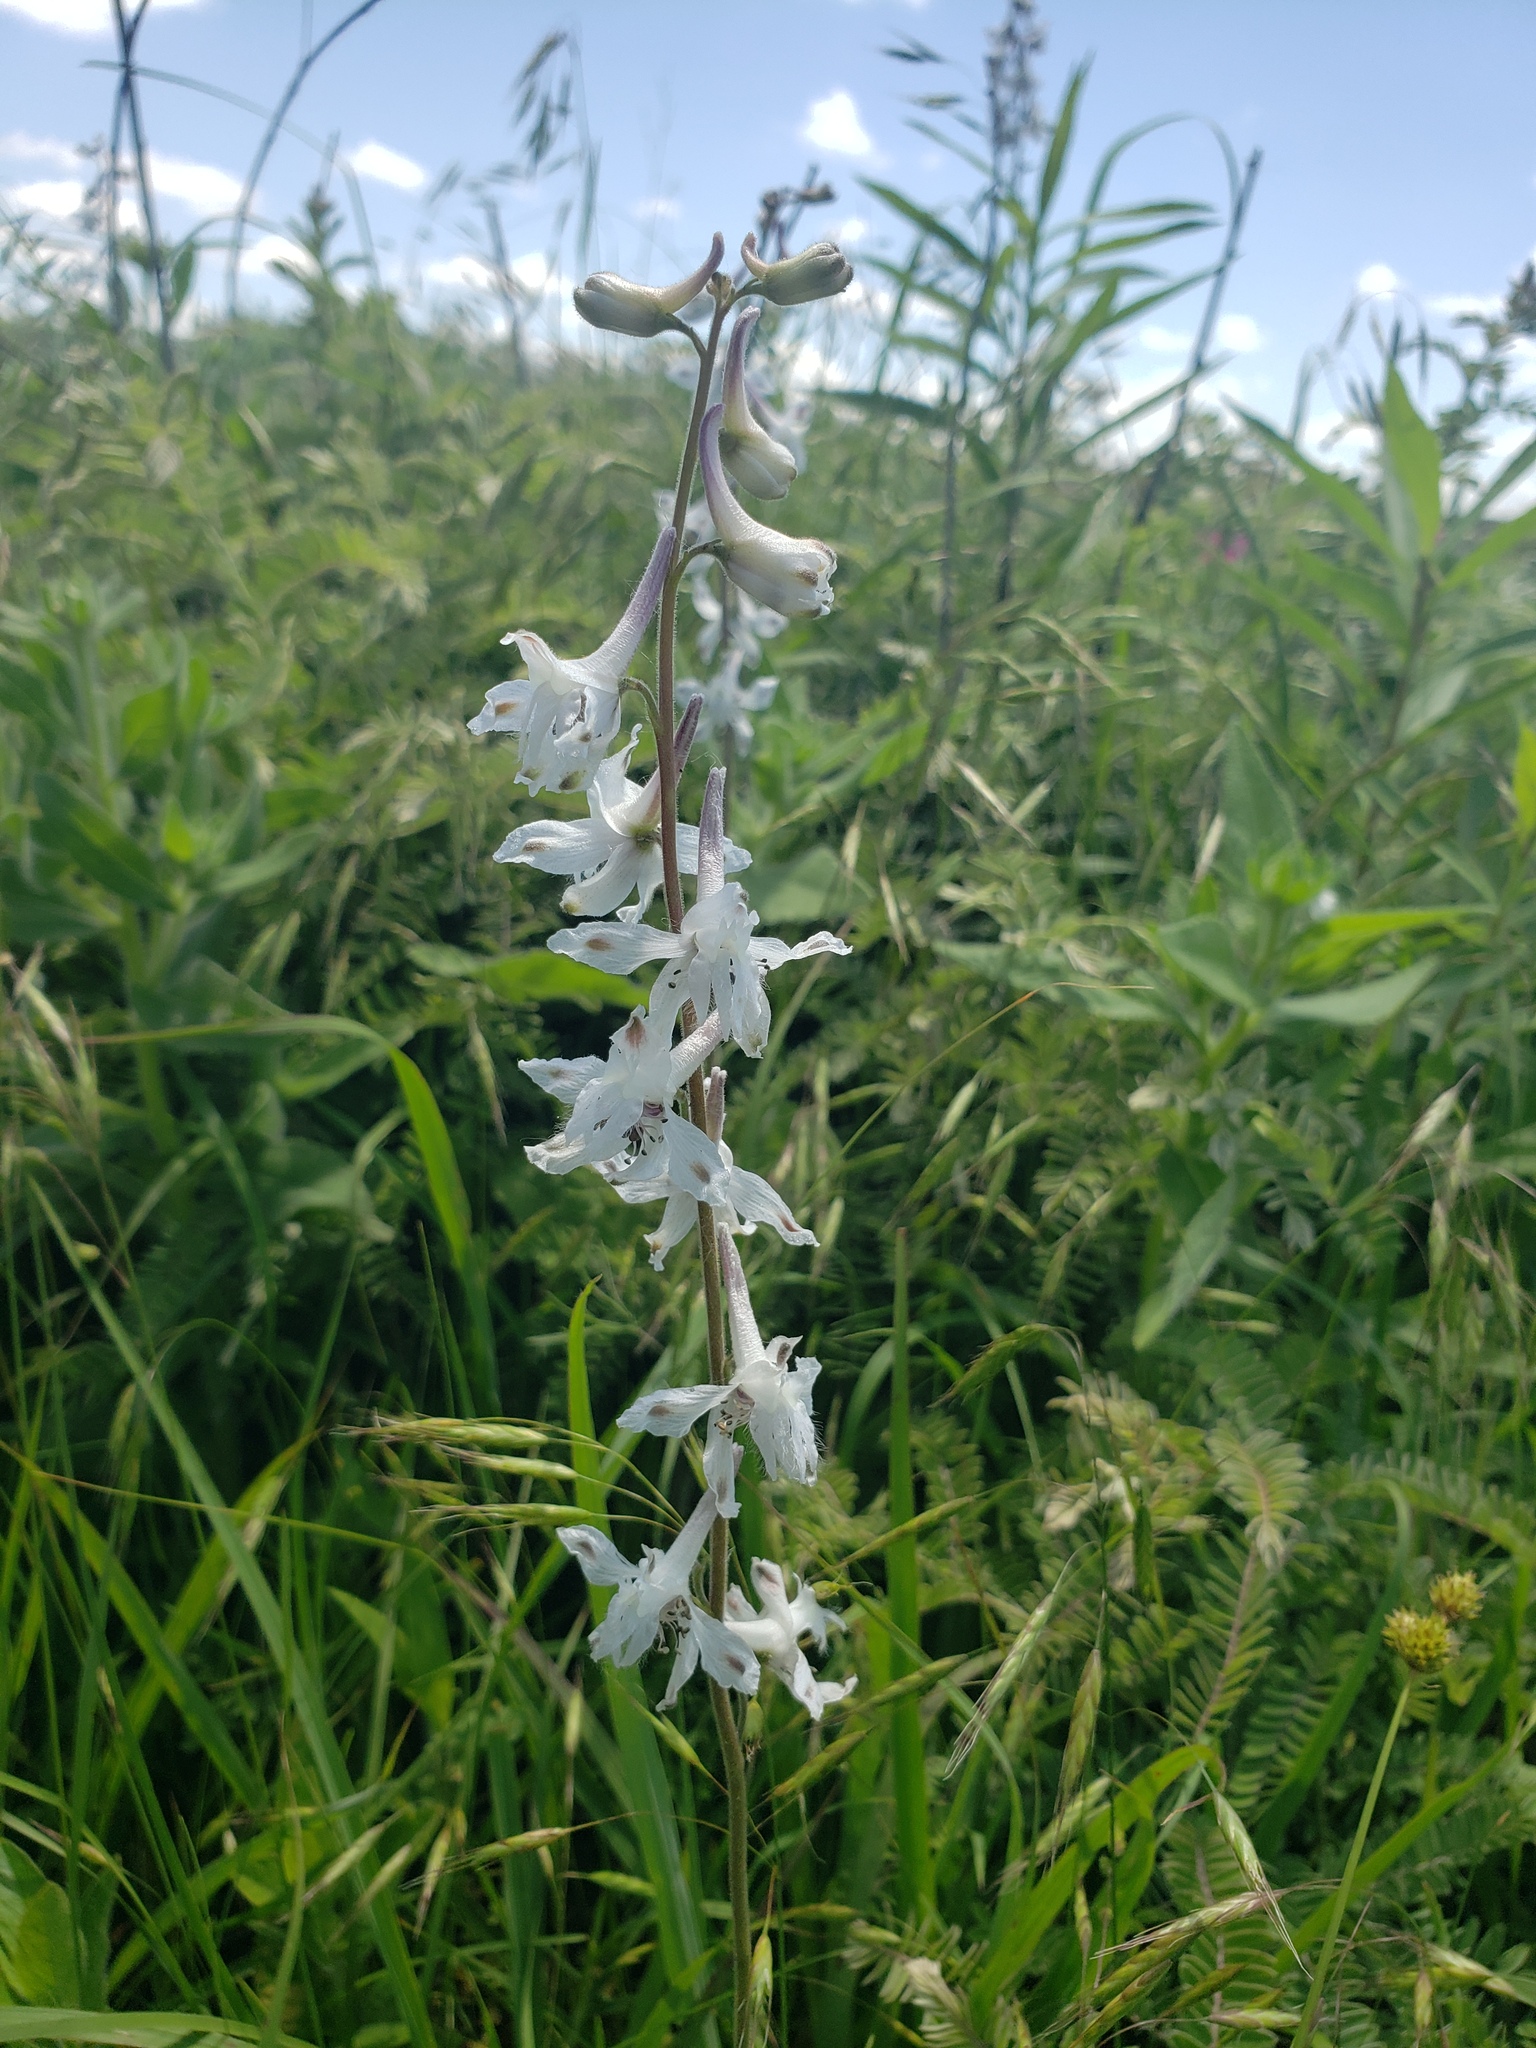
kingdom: Plantae
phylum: Tracheophyta
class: Magnoliopsida
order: Ranunculales
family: Ranunculaceae
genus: Delphinium
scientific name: Delphinium carolinianum
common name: Carolina larkspur
